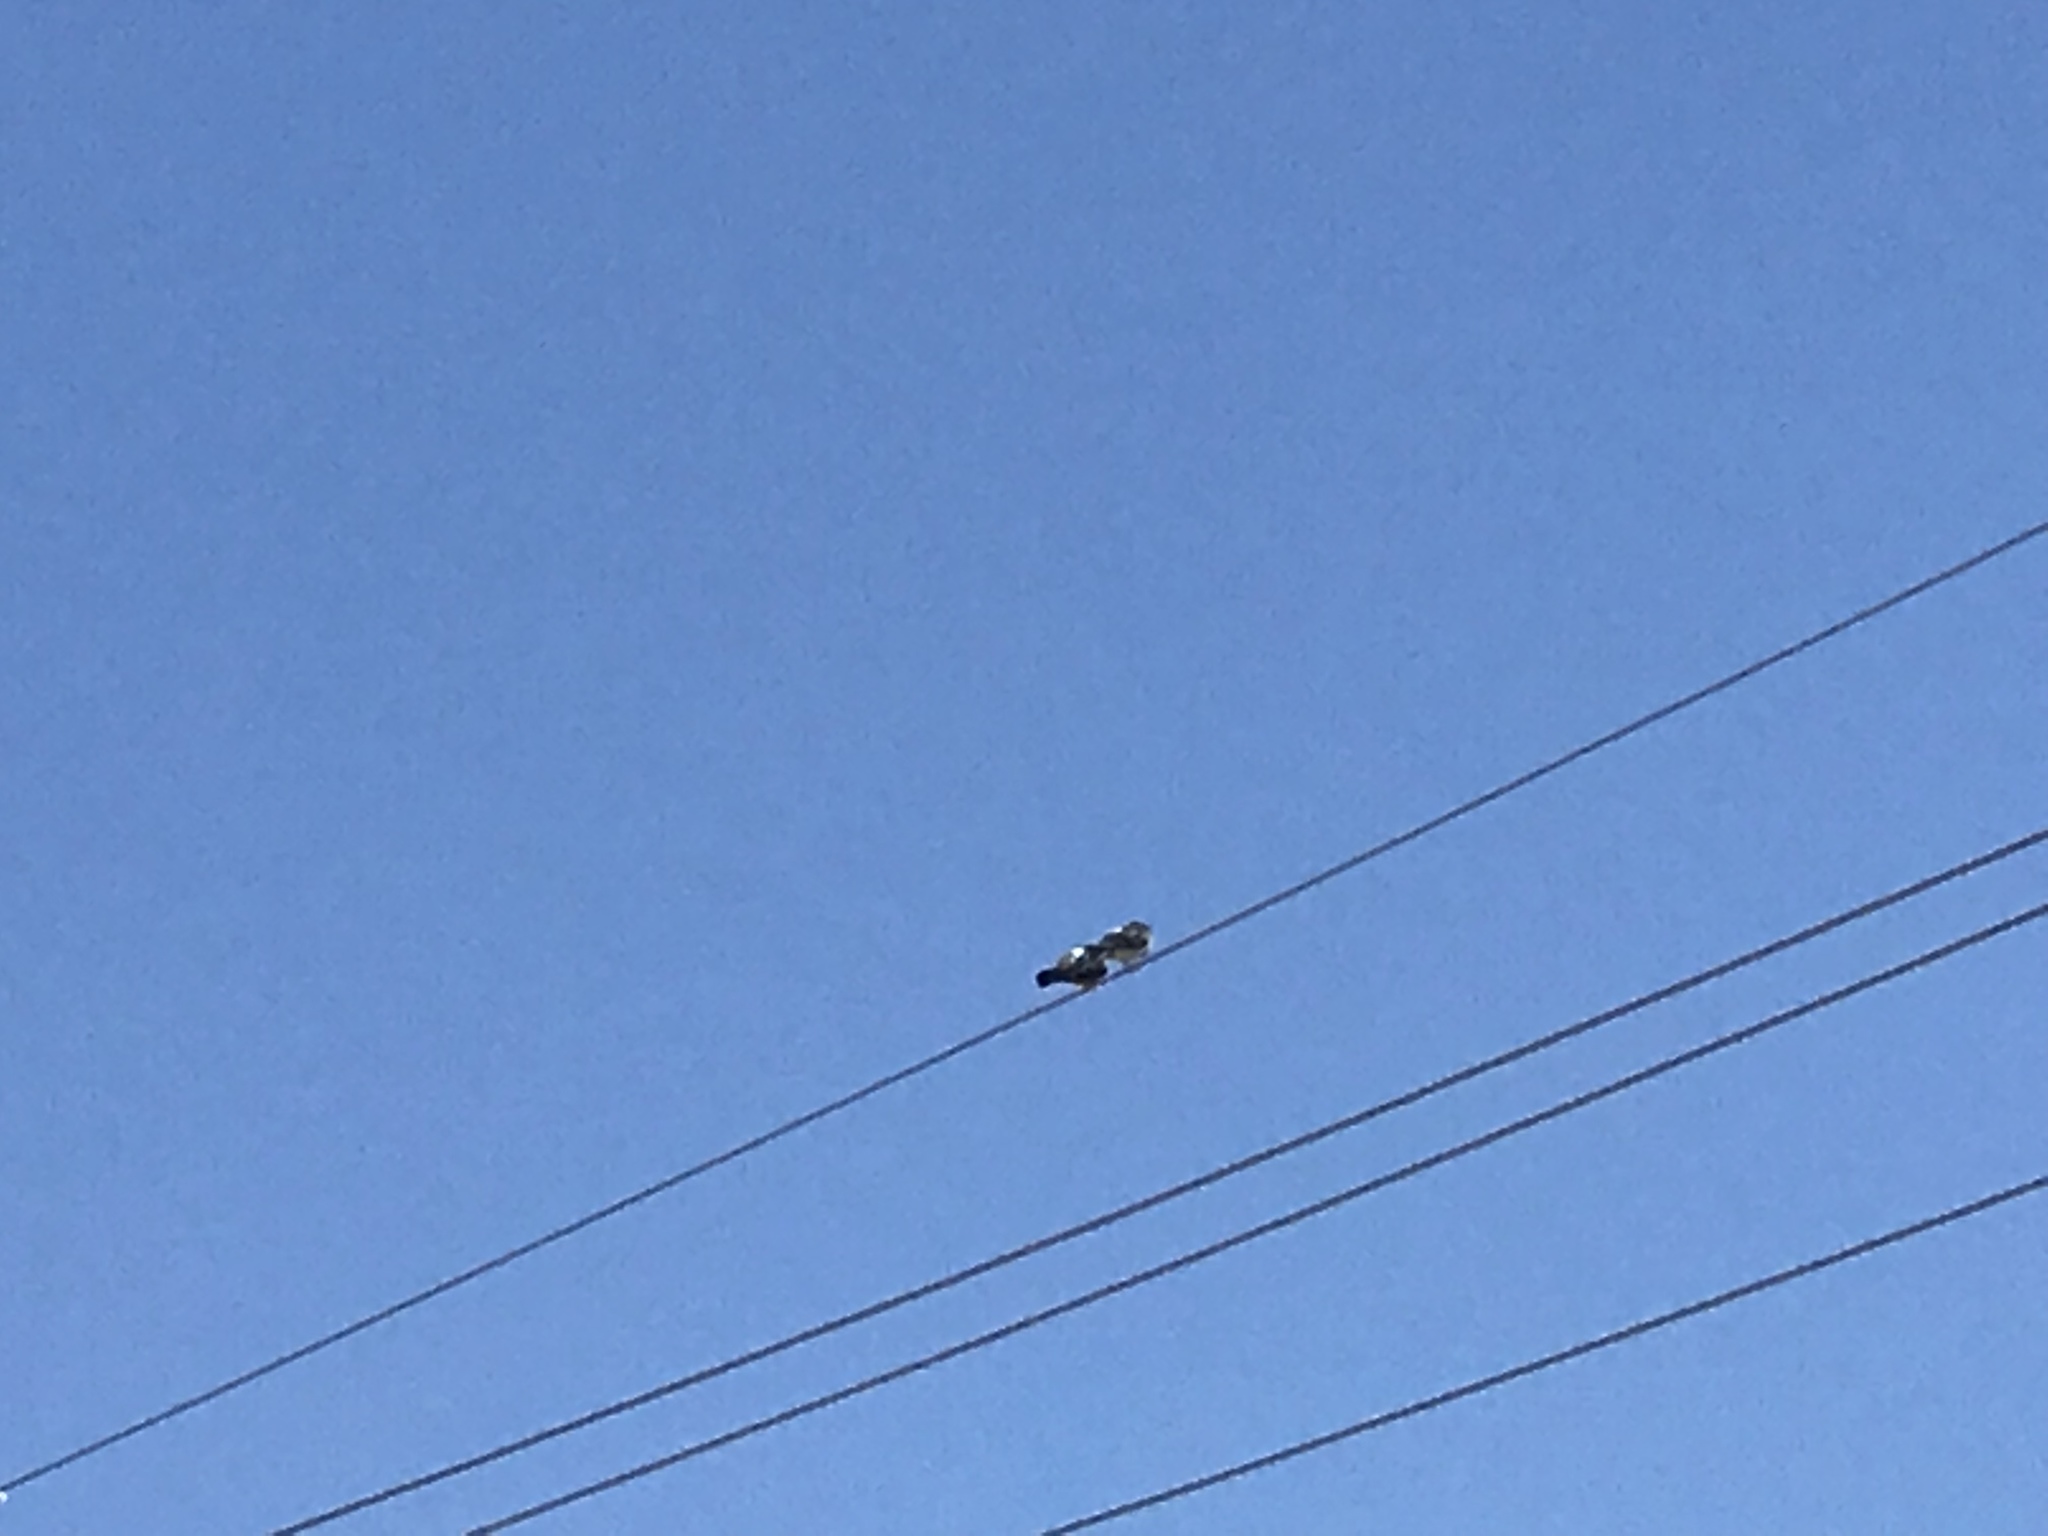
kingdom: Animalia
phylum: Chordata
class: Aves
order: Columbiformes
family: Columbidae
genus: Columba
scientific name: Columba livia
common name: Rock pigeon
